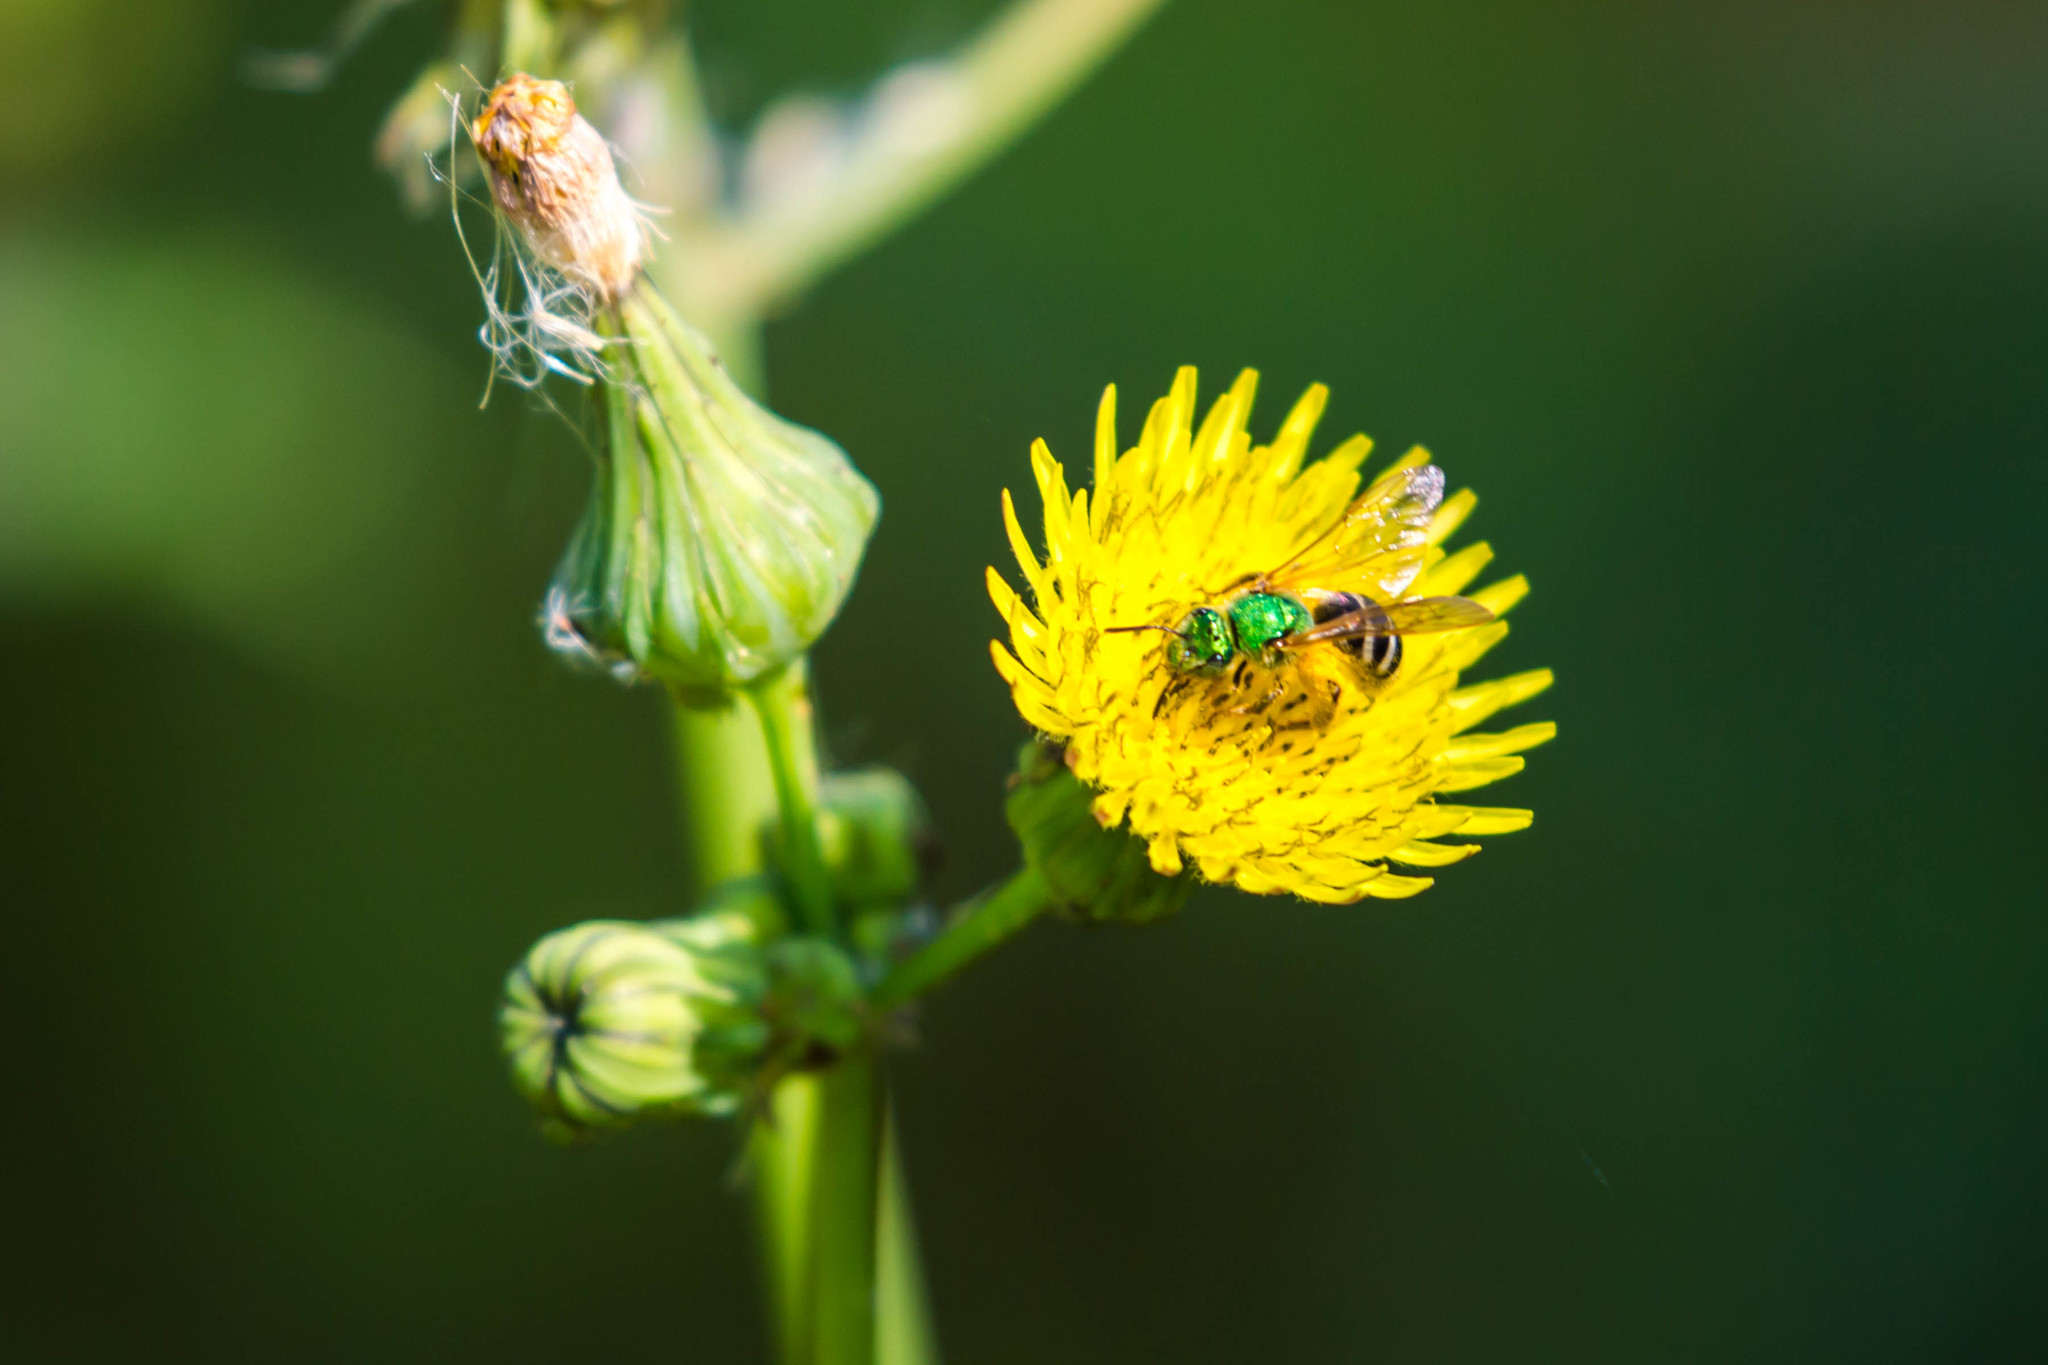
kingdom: Animalia
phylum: Arthropoda
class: Insecta
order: Hymenoptera
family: Halictidae
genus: Agapostemon
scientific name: Agapostemon virescens
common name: Bicolored striped sweat bee
